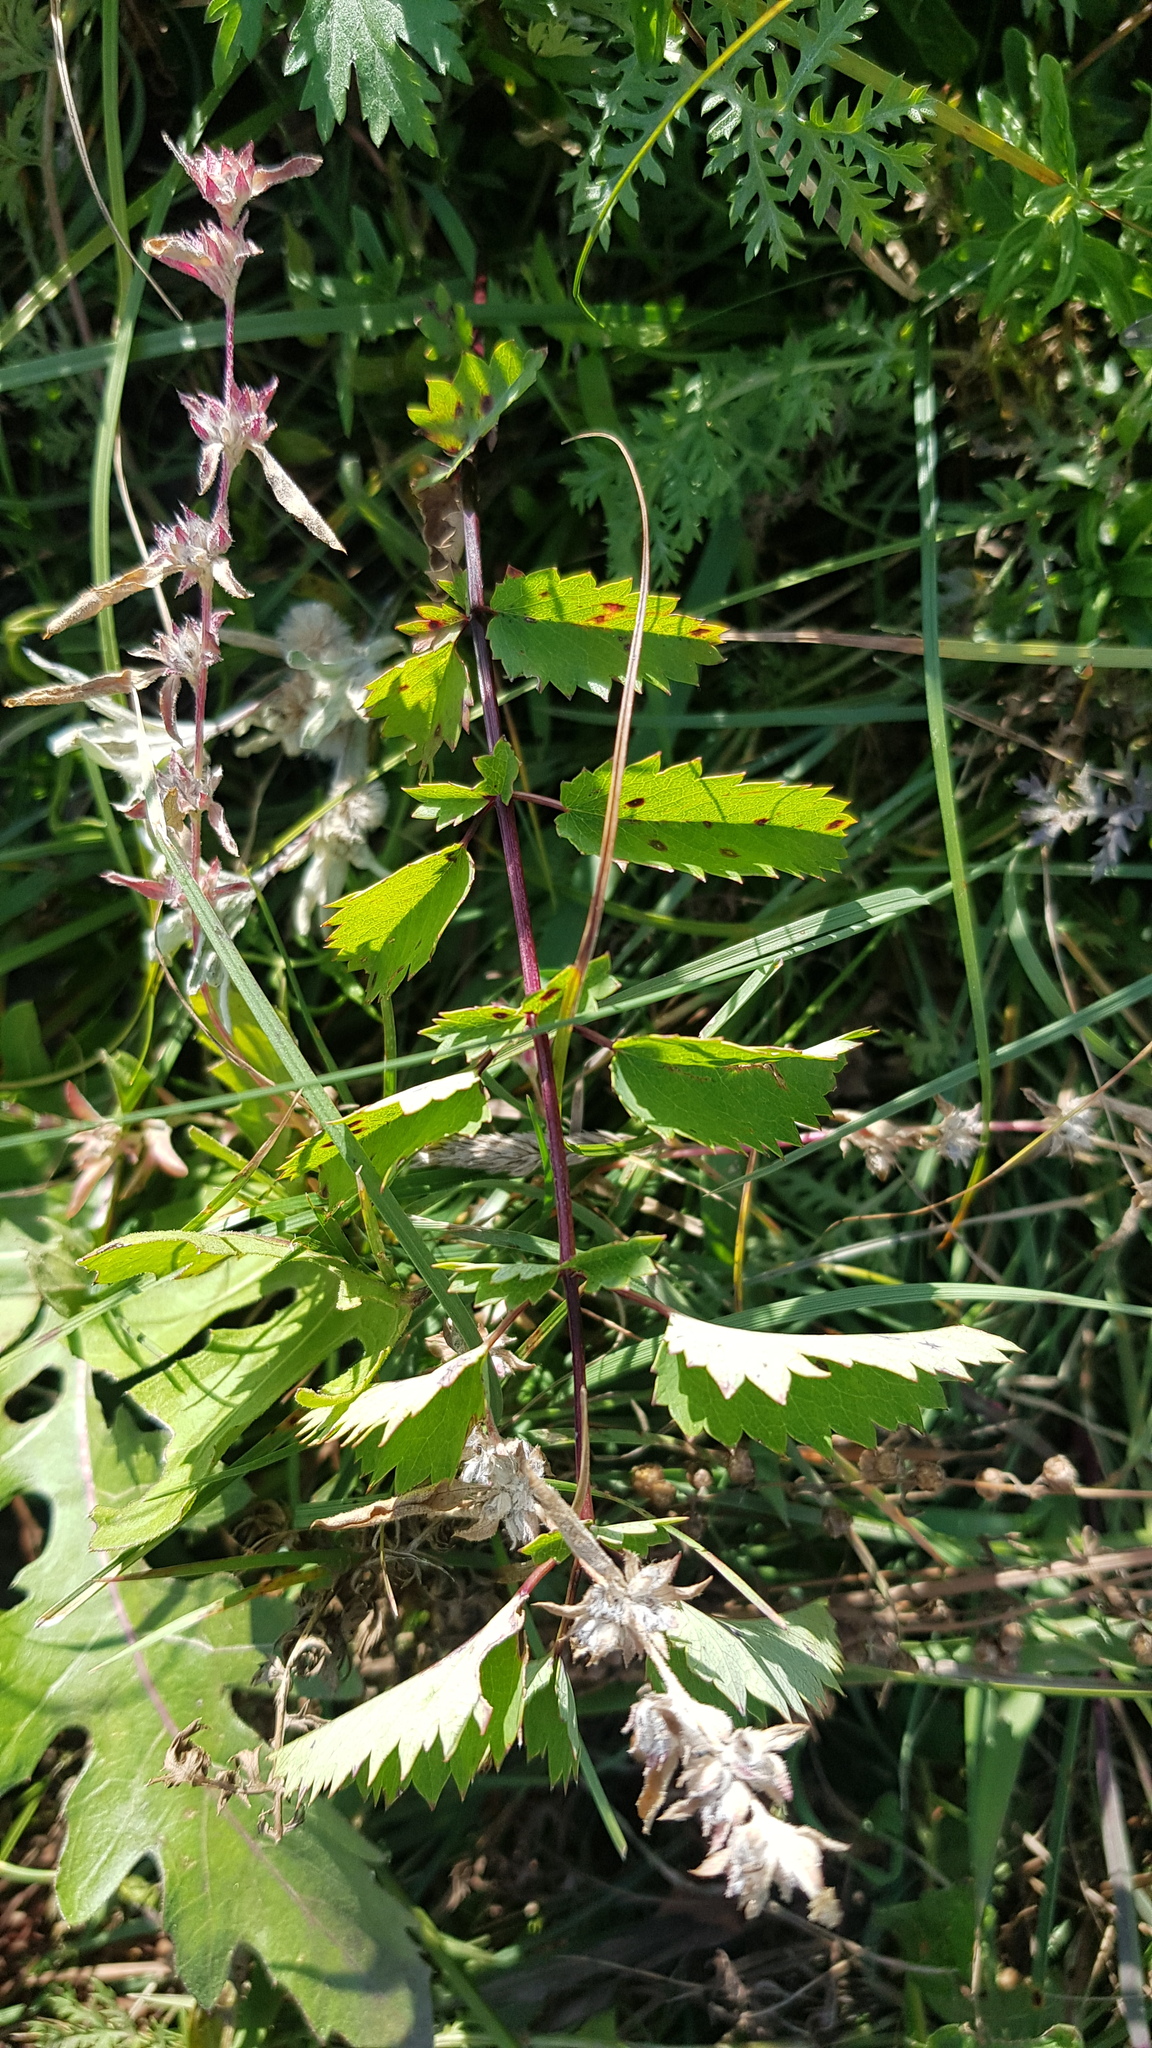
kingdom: Plantae
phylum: Tracheophyta
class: Magnoliopsida
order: Rosales
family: Rosaceae
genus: Sanguisorba
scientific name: Sanguisorba officinalis
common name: Great burnet
